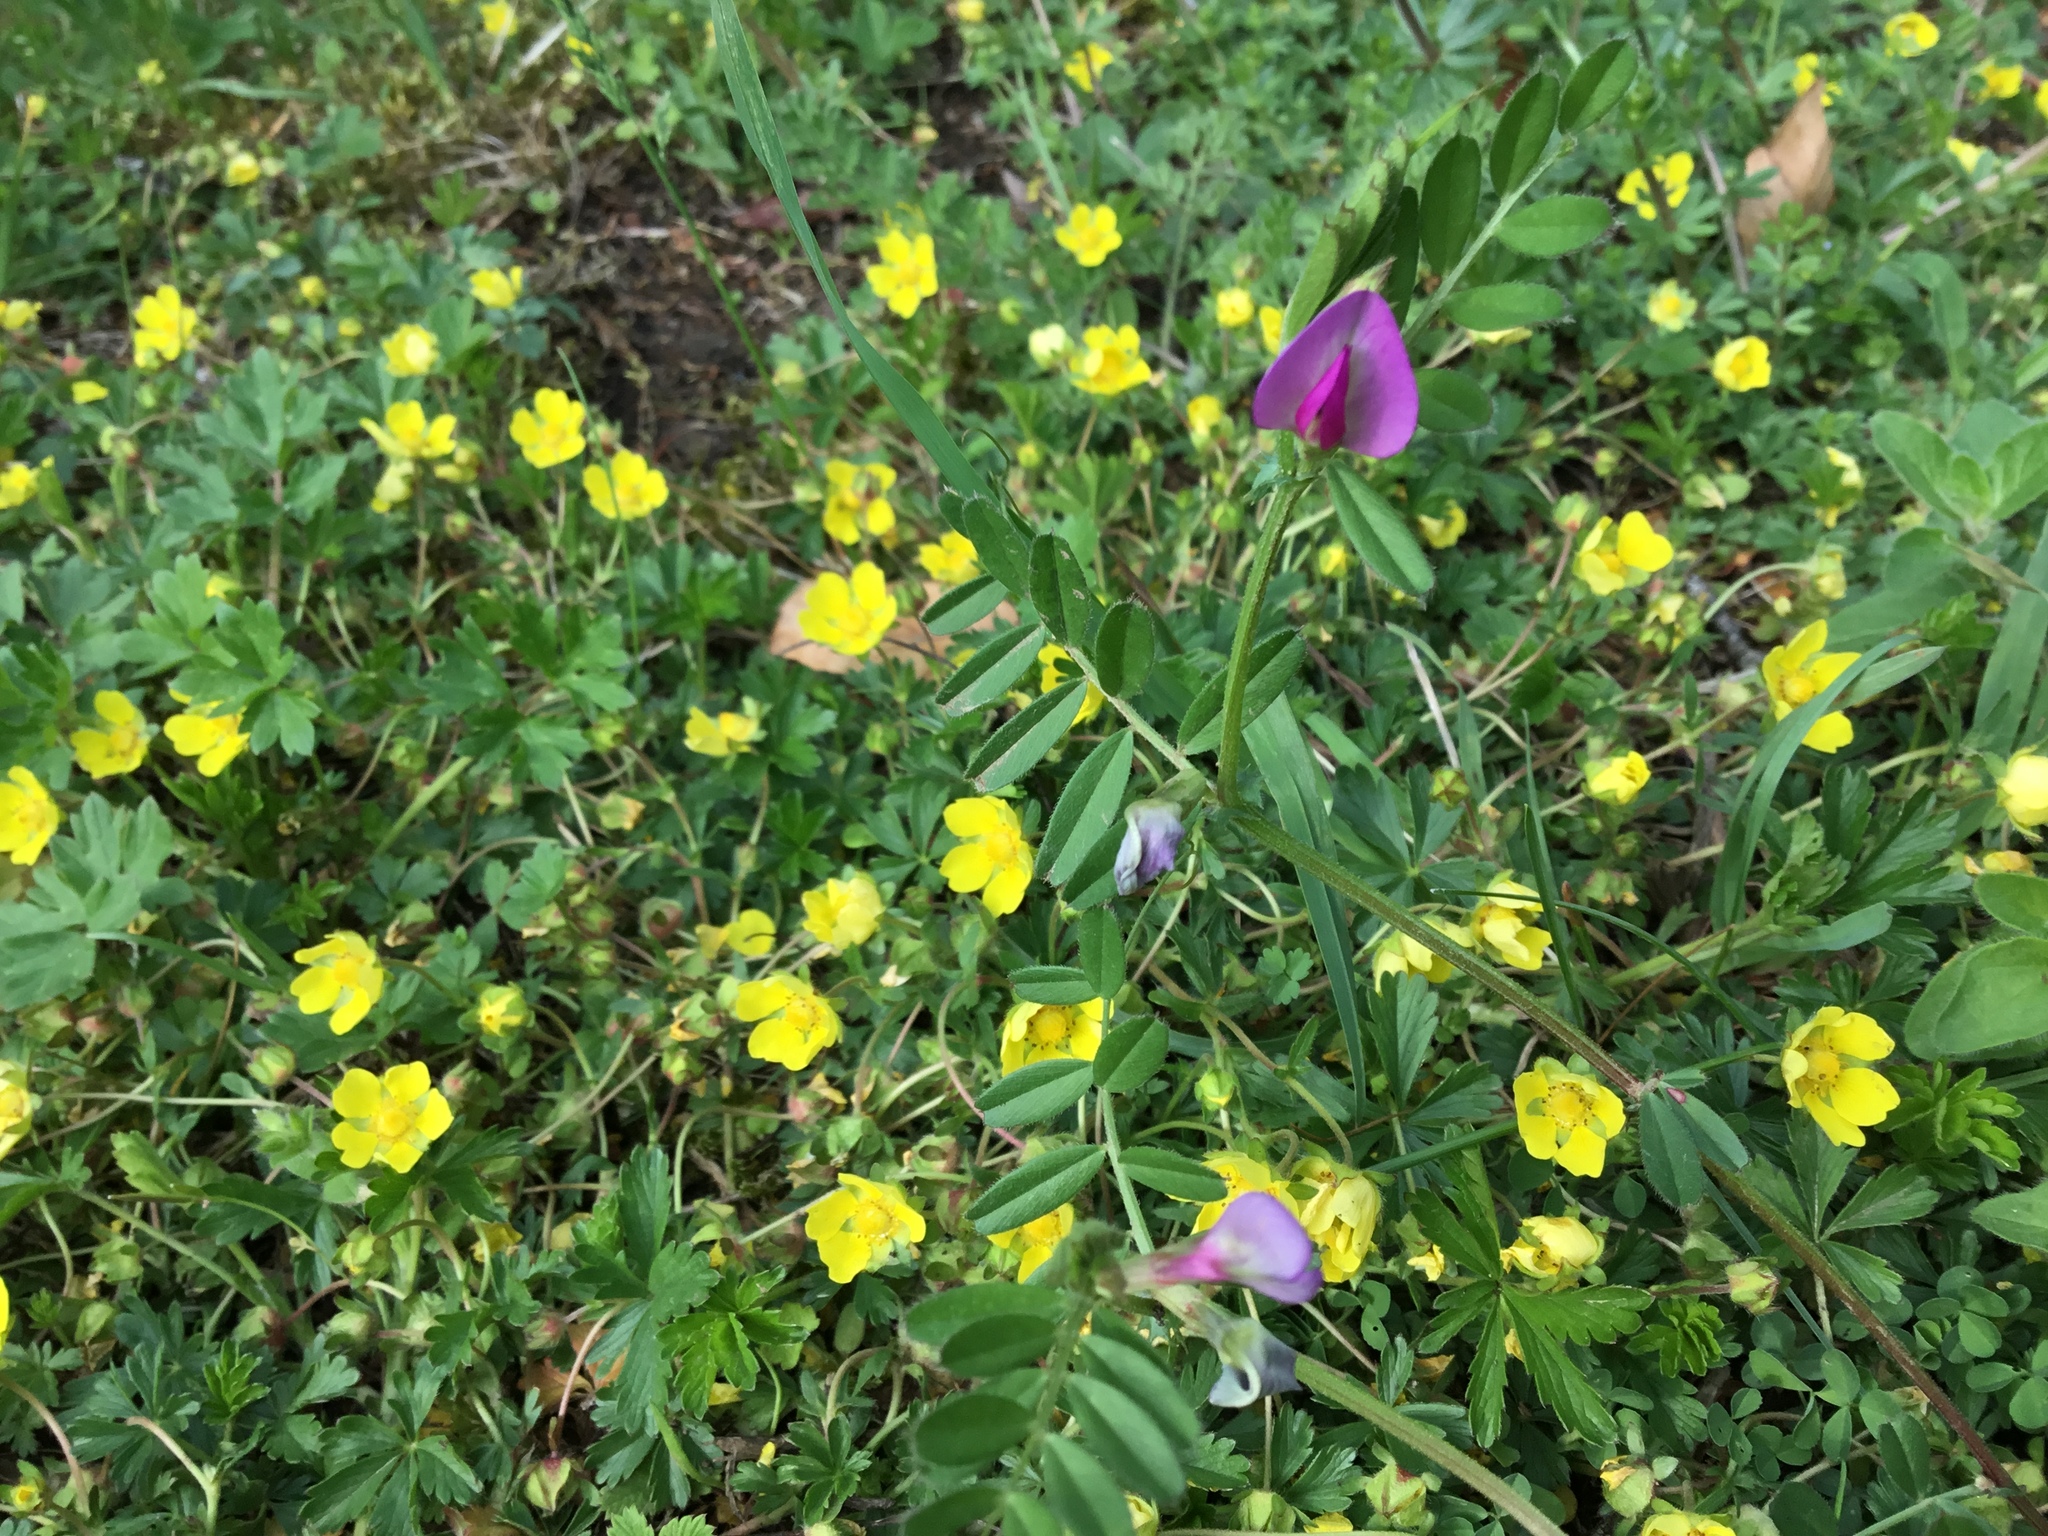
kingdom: Plantae
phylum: Tracheophyta
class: Magnoliopsida
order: Fabales
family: Fabaceae
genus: Vicia
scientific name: Vicia sativa
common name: Garden vetch
